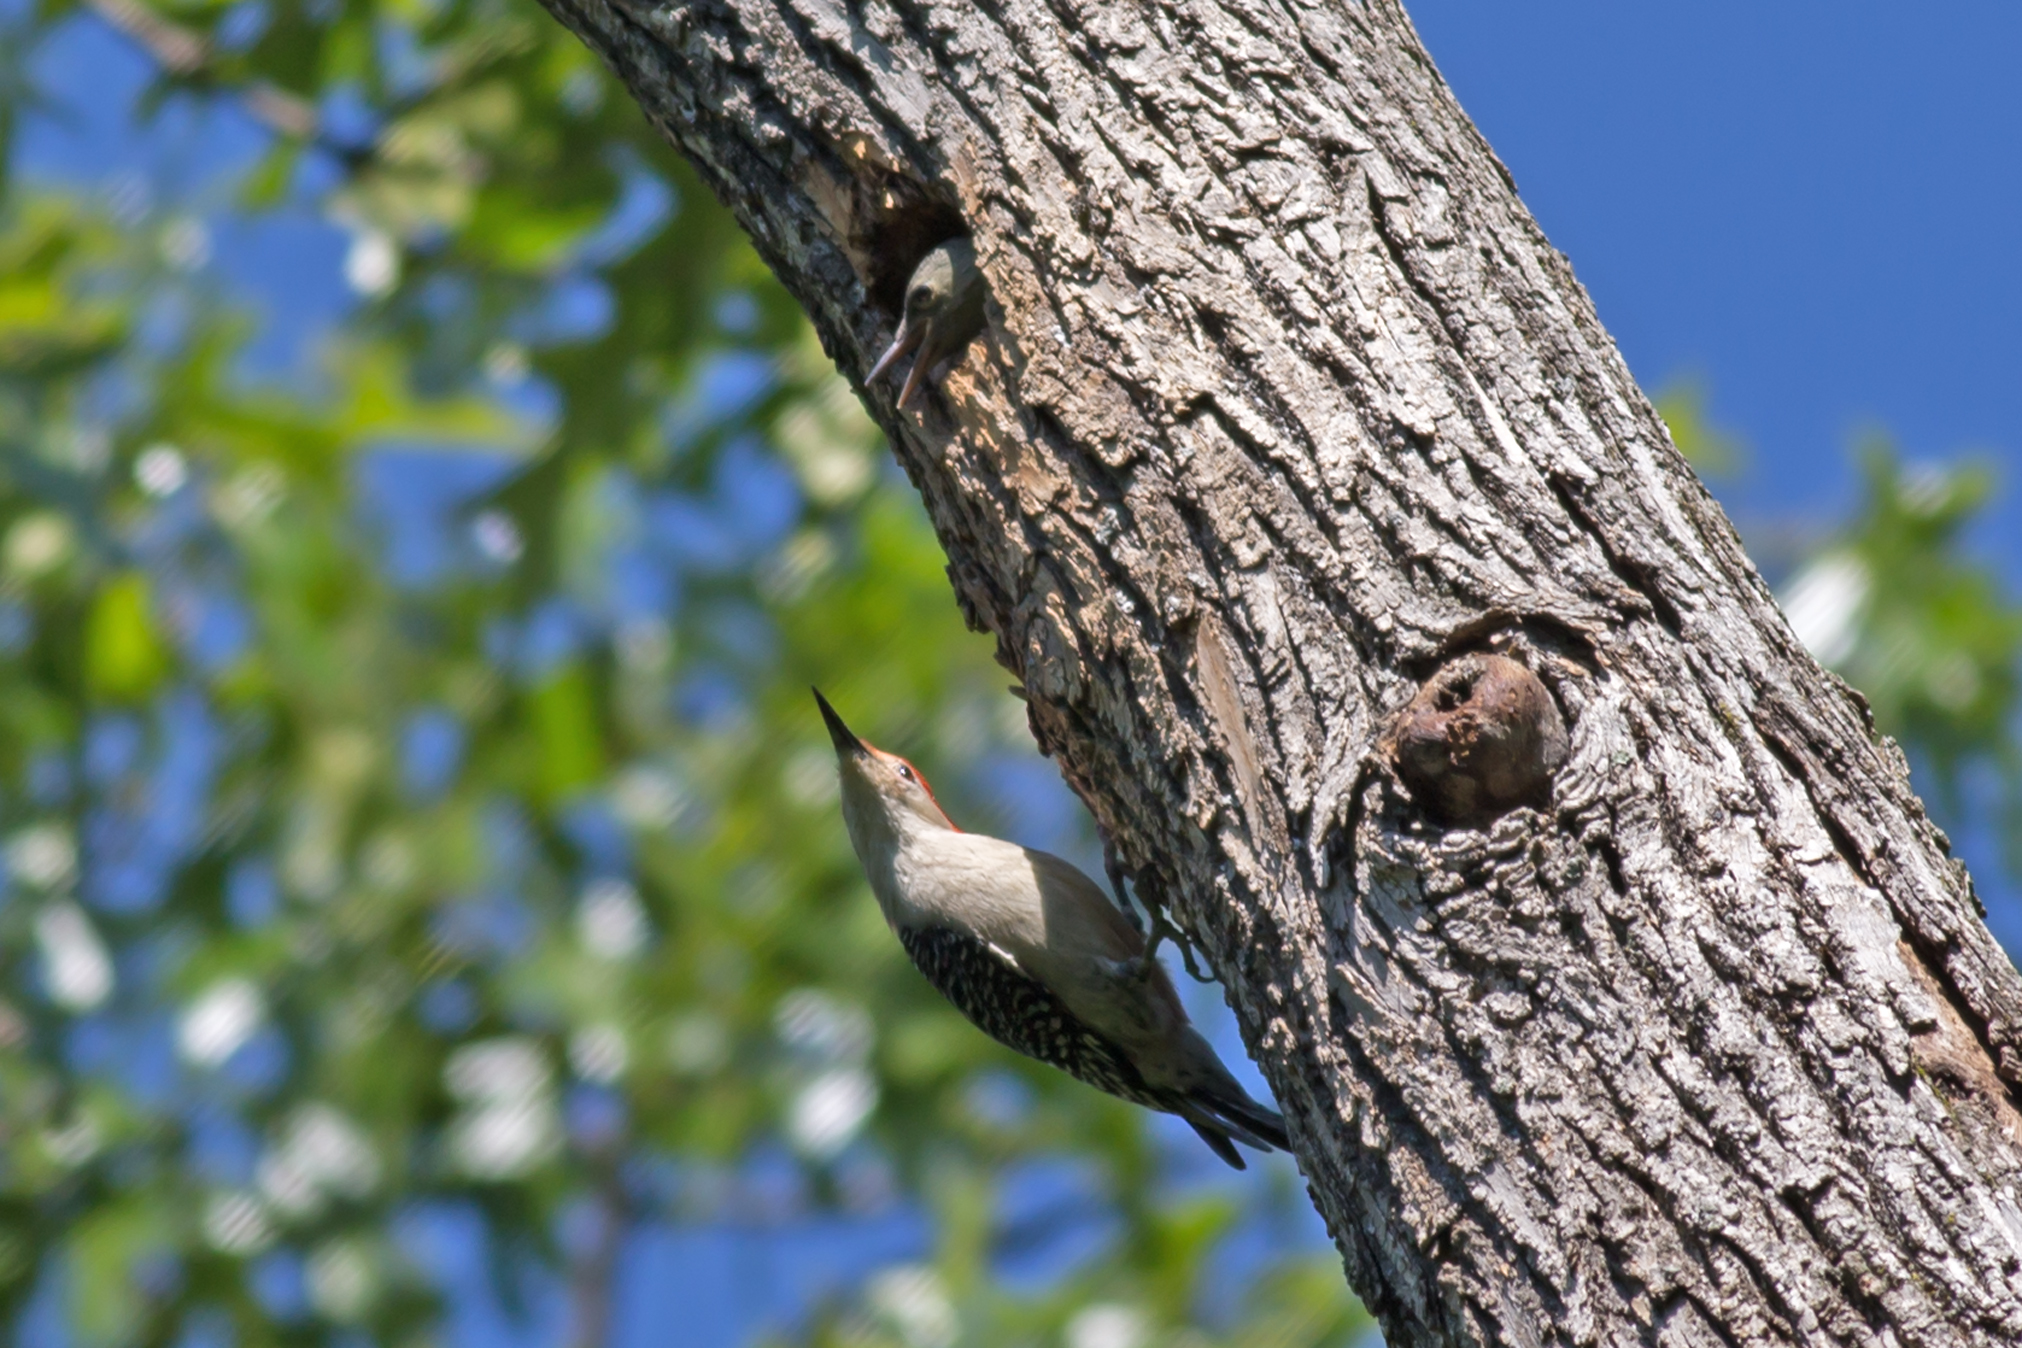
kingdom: Animalia
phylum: Chordata
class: Aves
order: Piciformes
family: Picidae
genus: Melanerpes
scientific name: Melanerpes carolinus
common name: Red-bellied woodpecker
